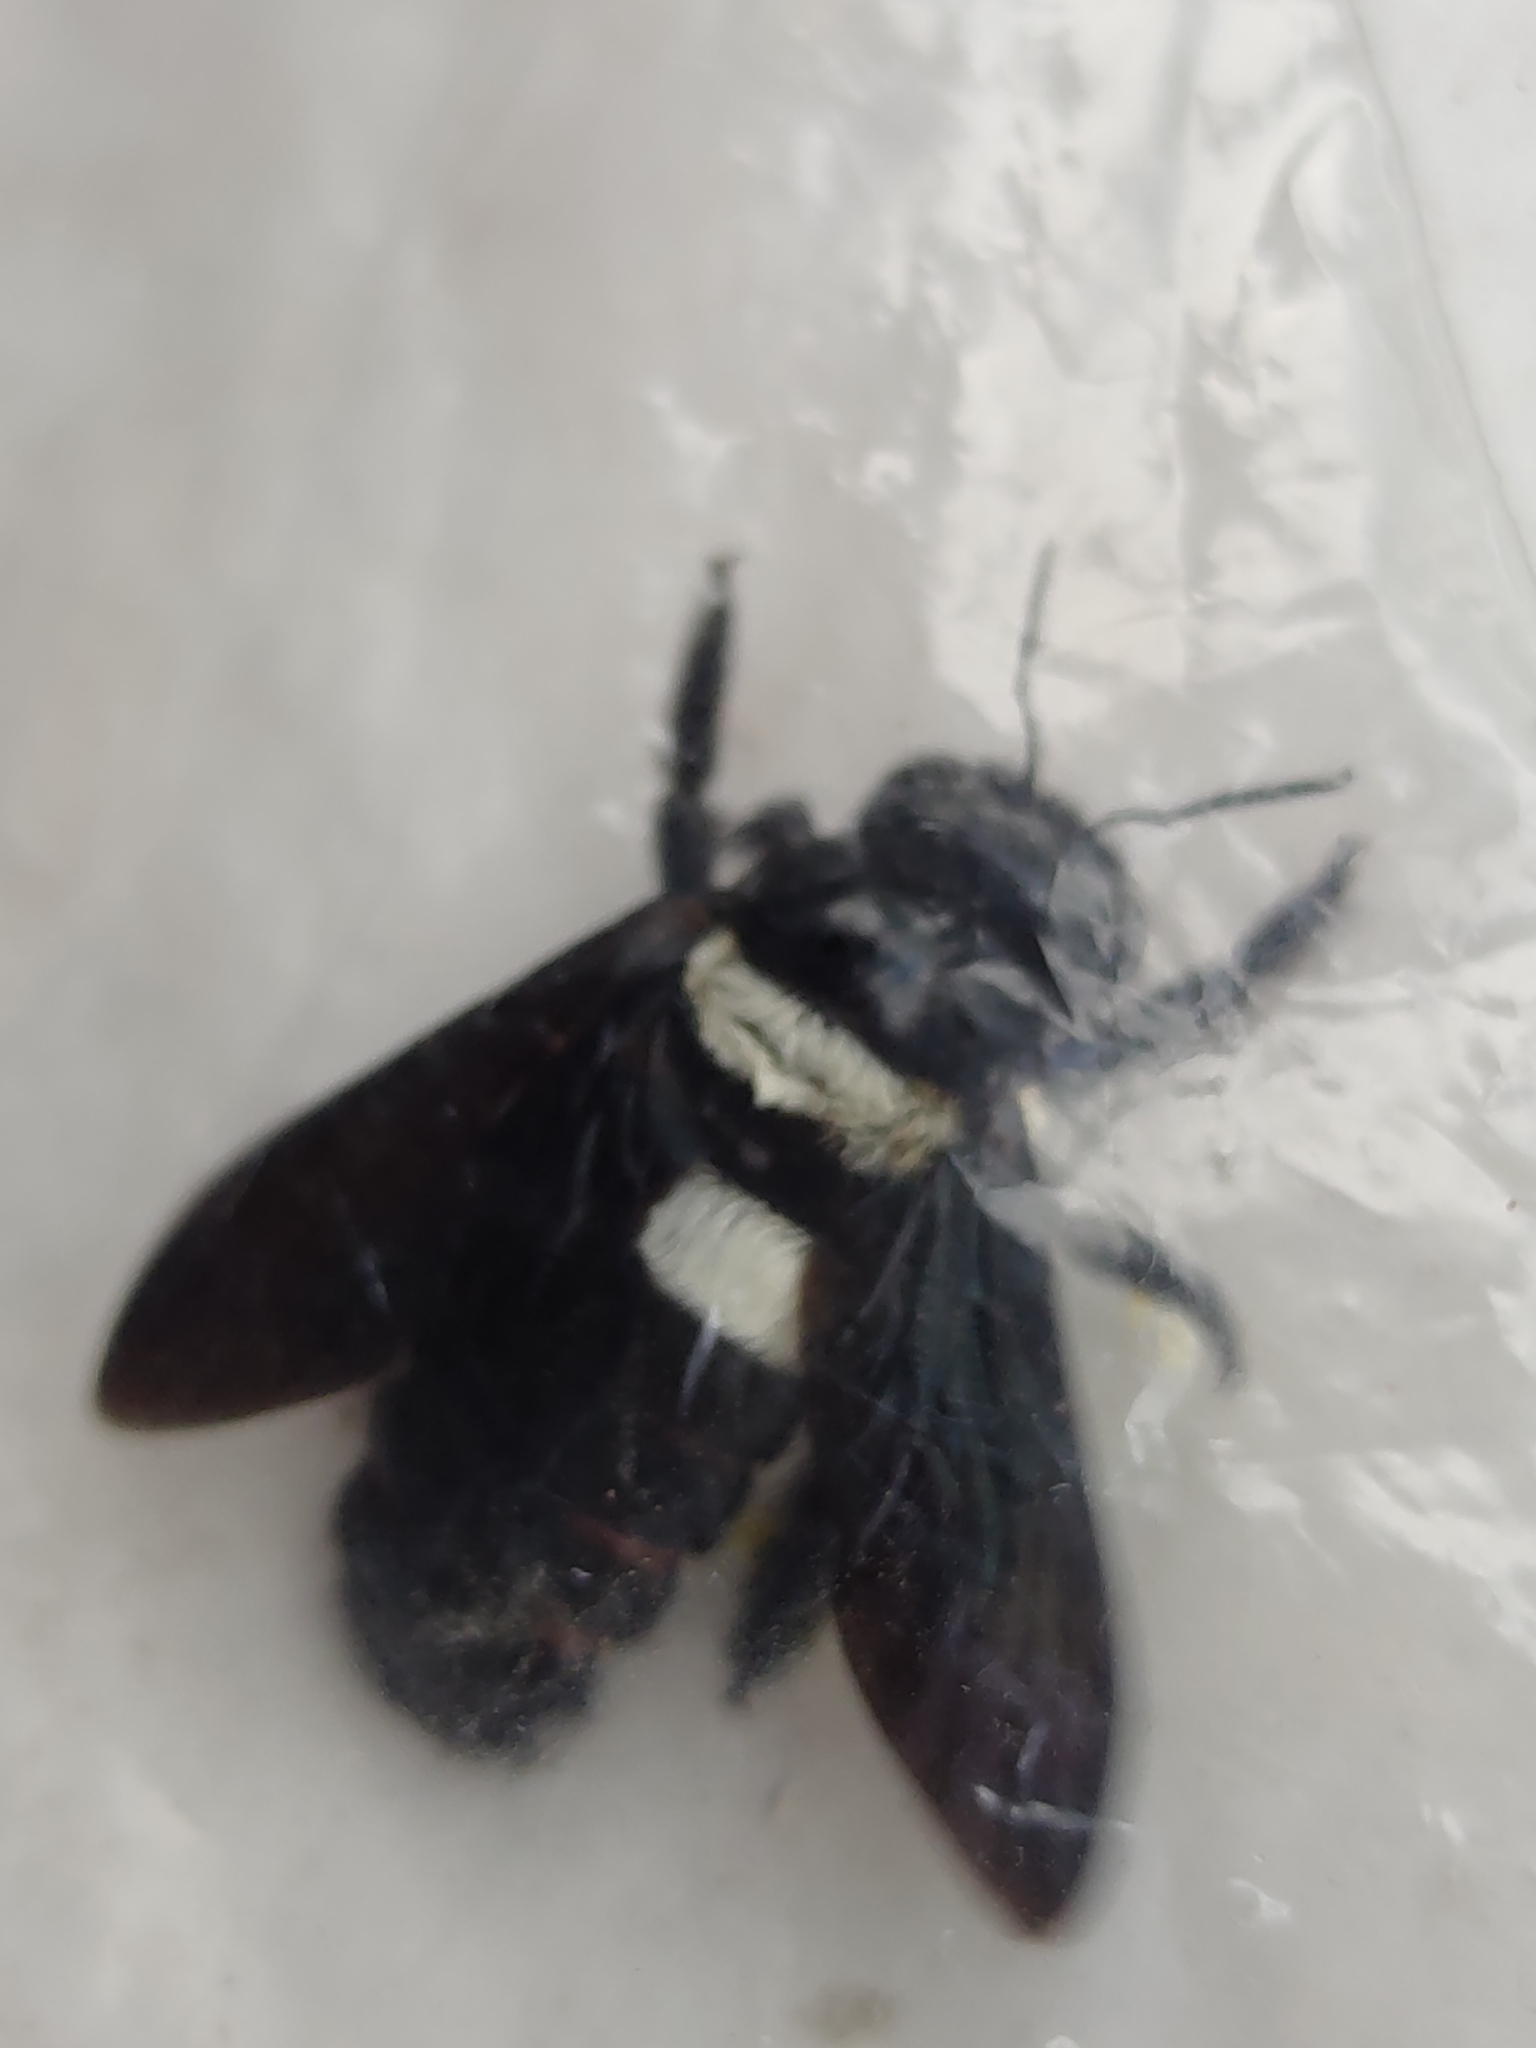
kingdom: Animalia
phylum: Arthropoda
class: Insecta
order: Hymenoptera
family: Apidae
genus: Xylocopa
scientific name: Xylocopa inconstans
